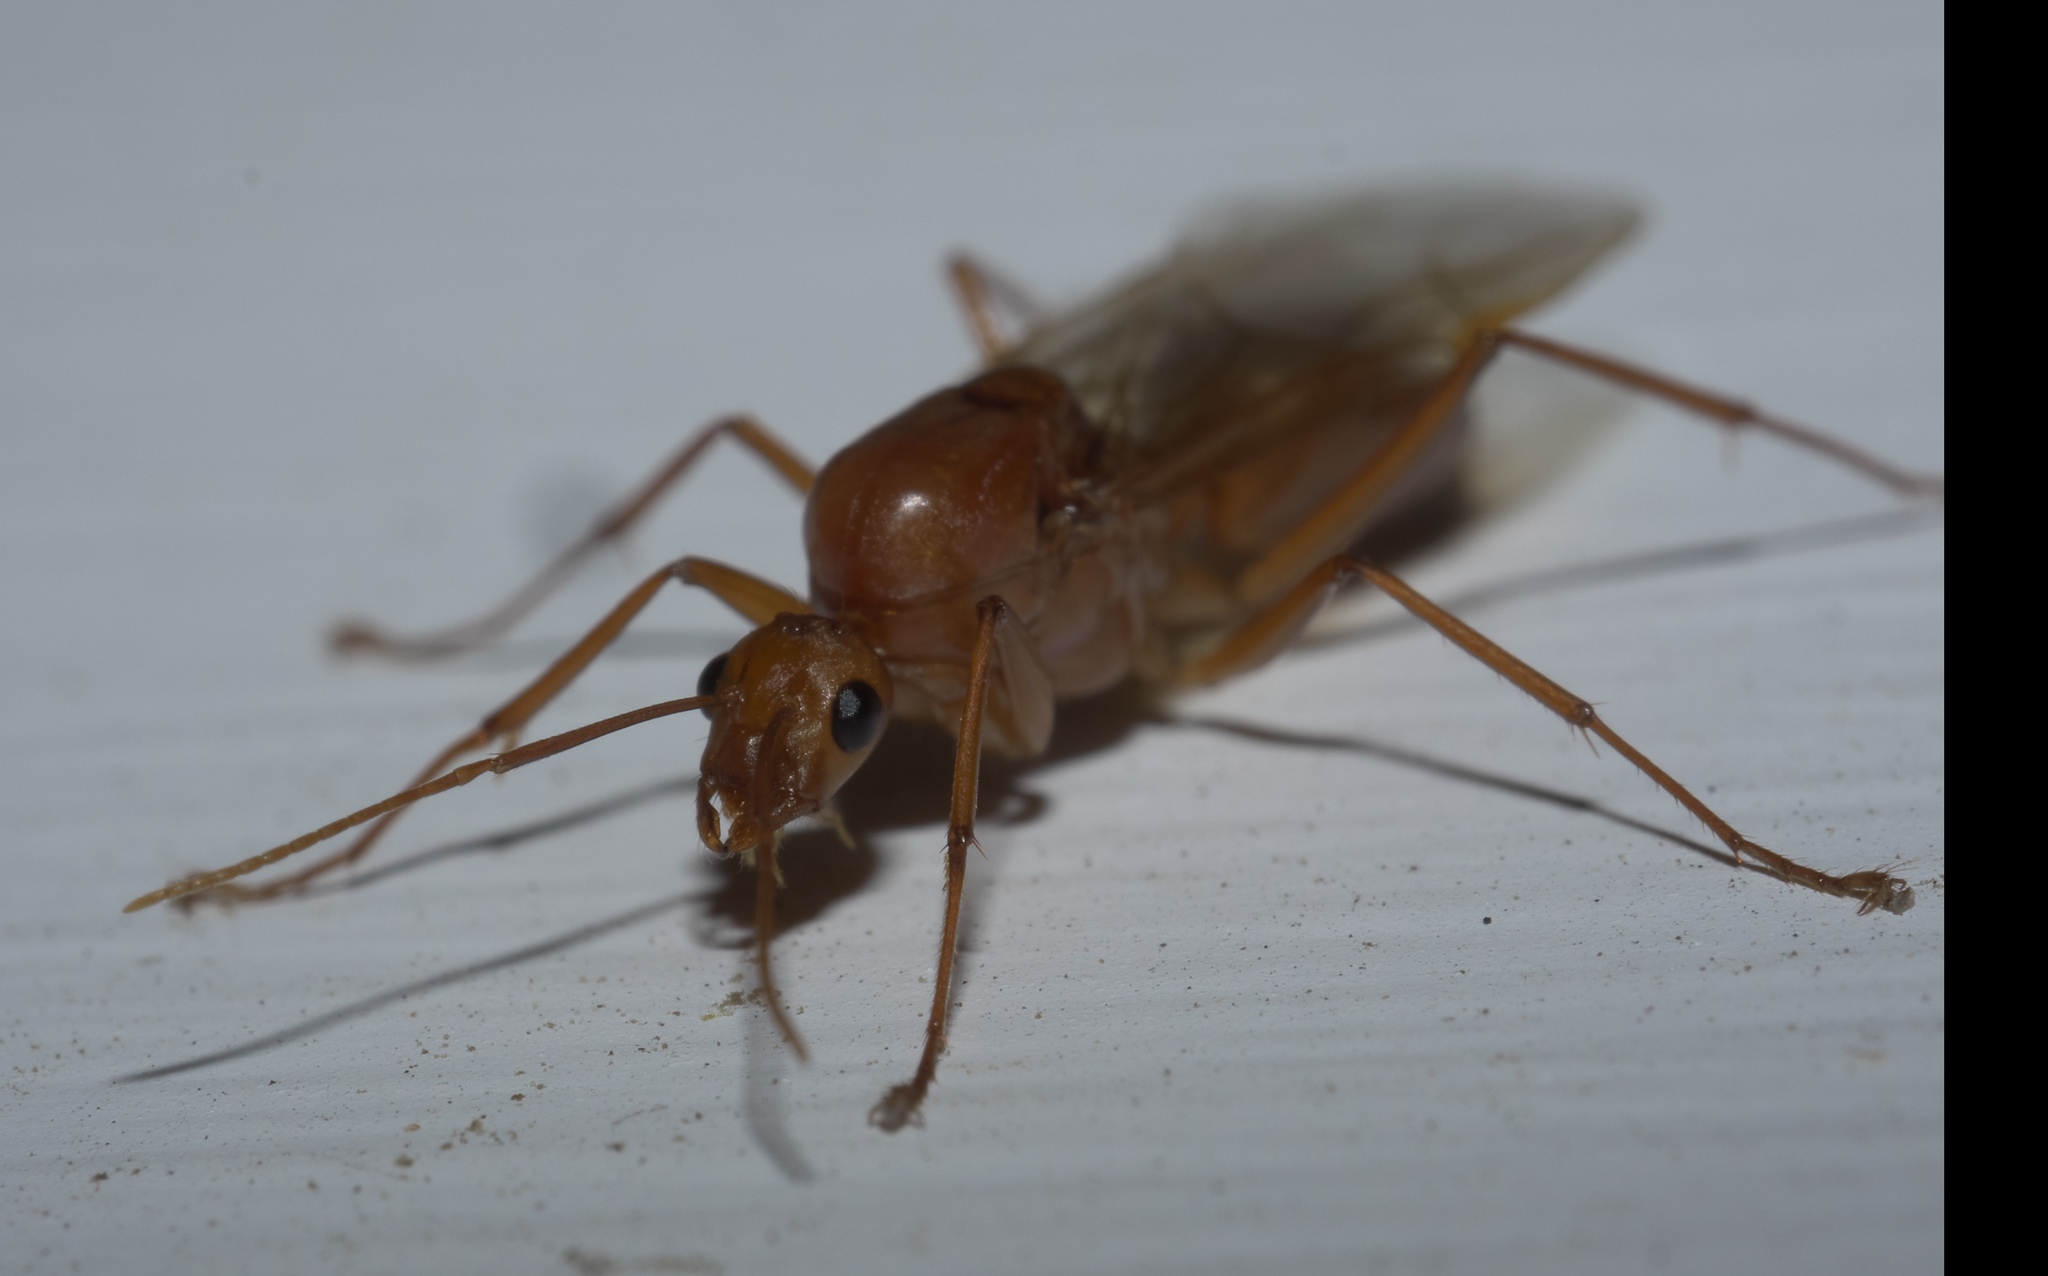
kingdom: Animalia
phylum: Arthropoda
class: Insecta
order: Hymenoptera
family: Formicidae
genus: Camponotus
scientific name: Camponotus castaneus
